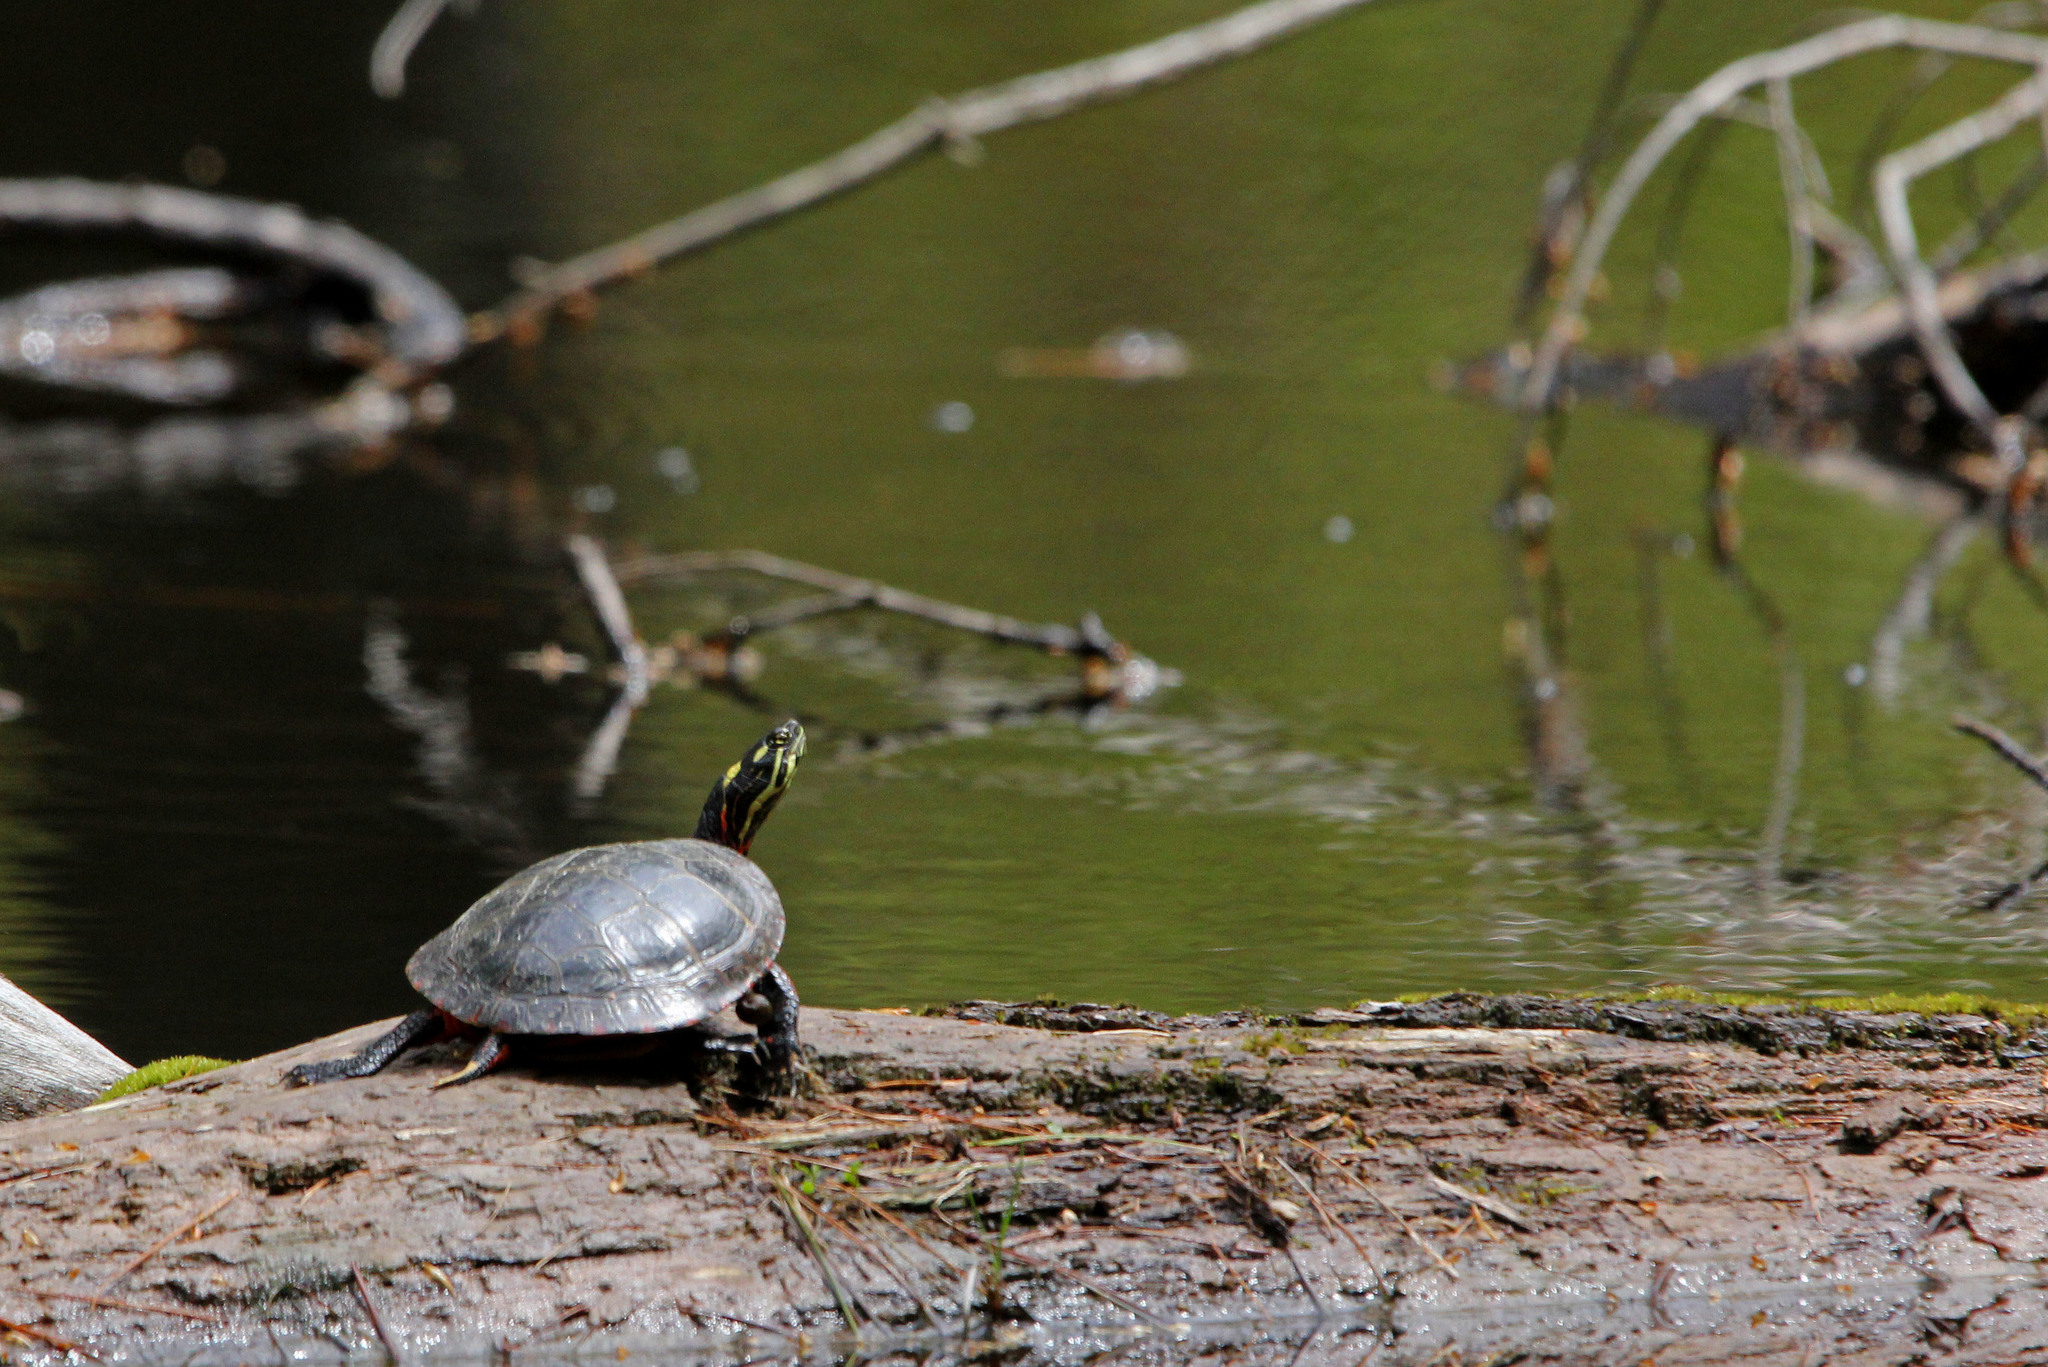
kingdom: Animalia
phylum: Chordata
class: Testudines
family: Emydidae
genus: Chrysemys
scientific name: Chrysemys picta
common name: Painted turtle
